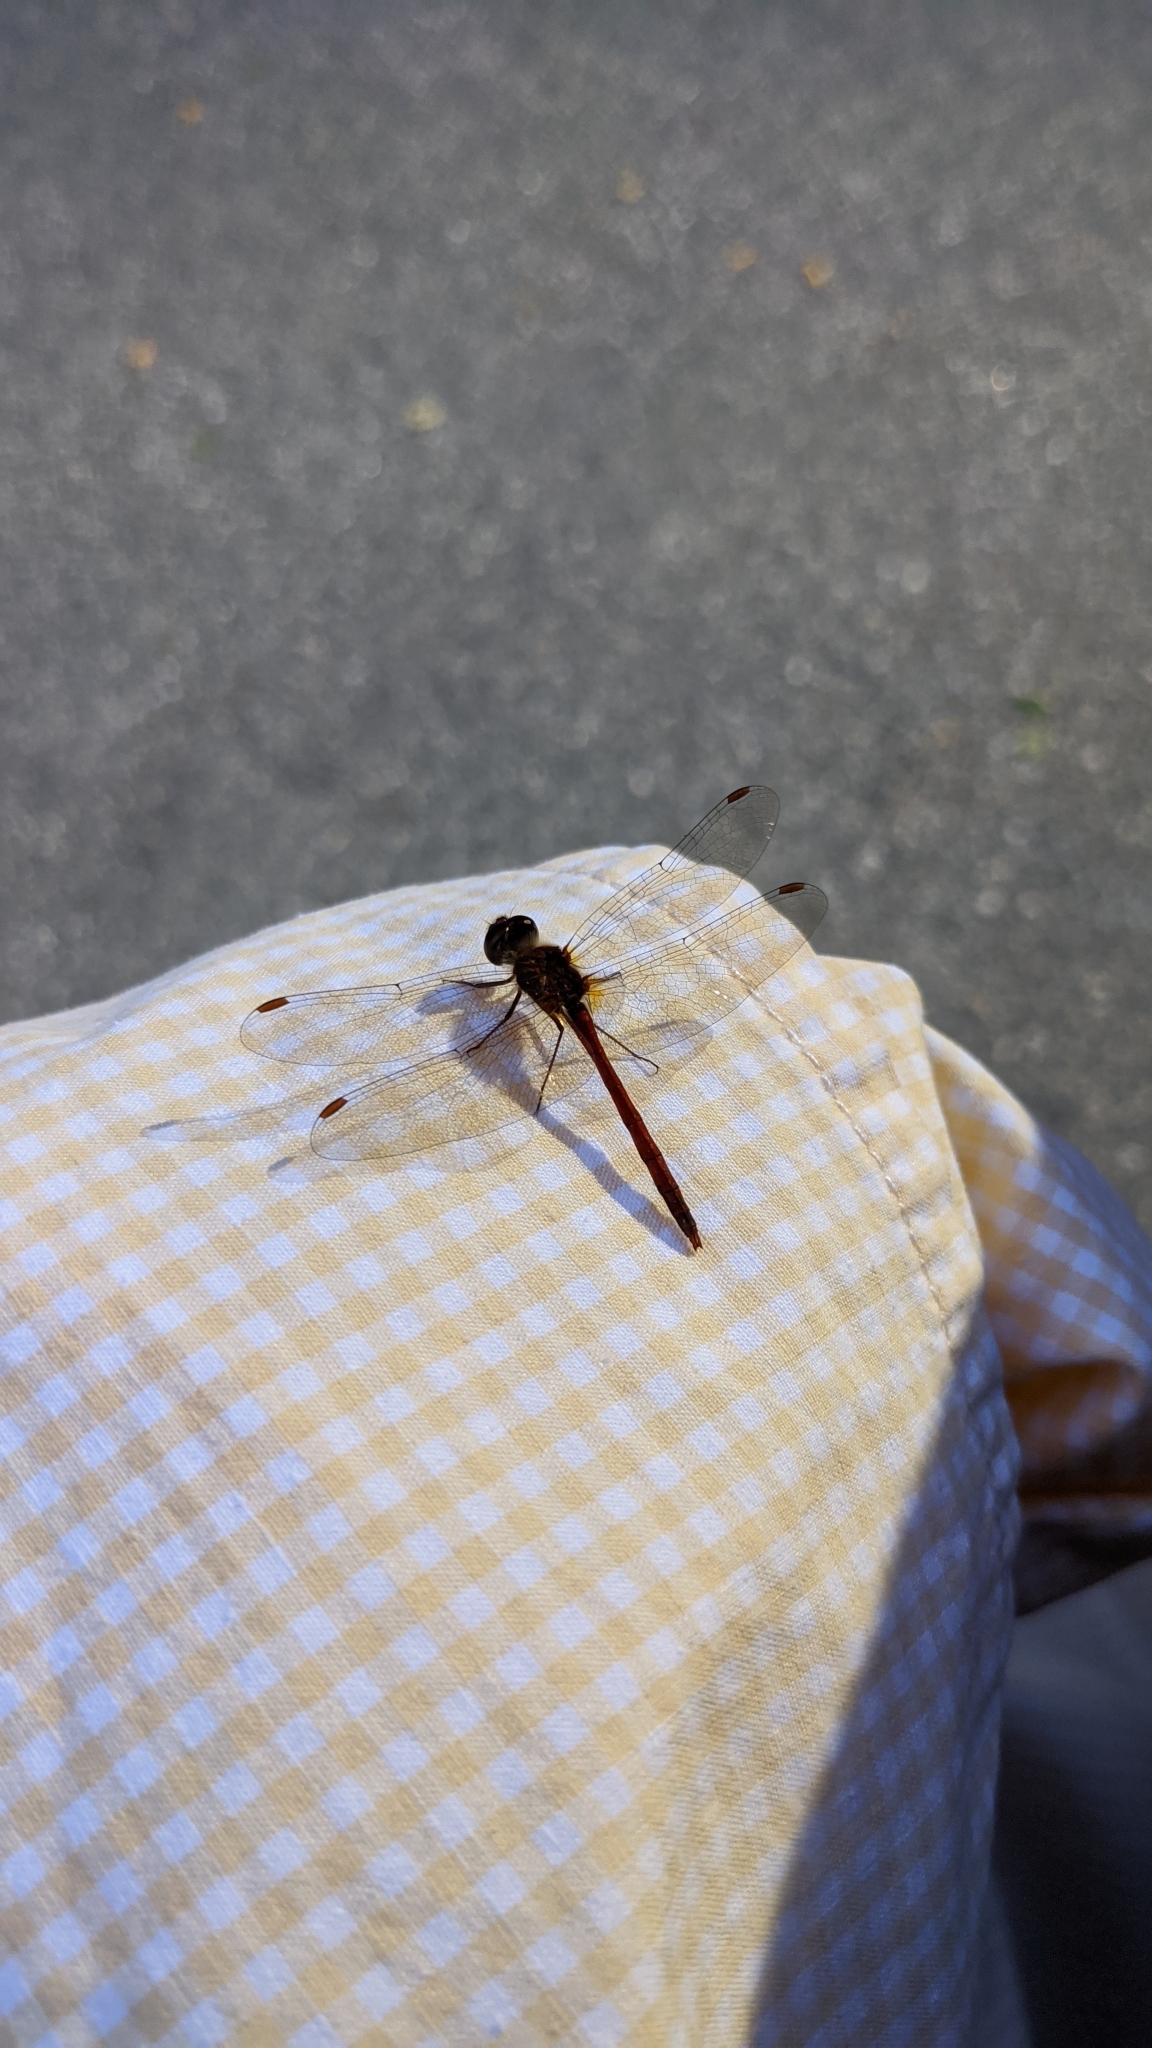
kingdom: Animalia
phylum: Arthropoda
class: Insecta
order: Odonata
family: Libellulidae
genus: Sympetrum
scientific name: Sympetrum vicinum
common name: Autumn meadowhawk
